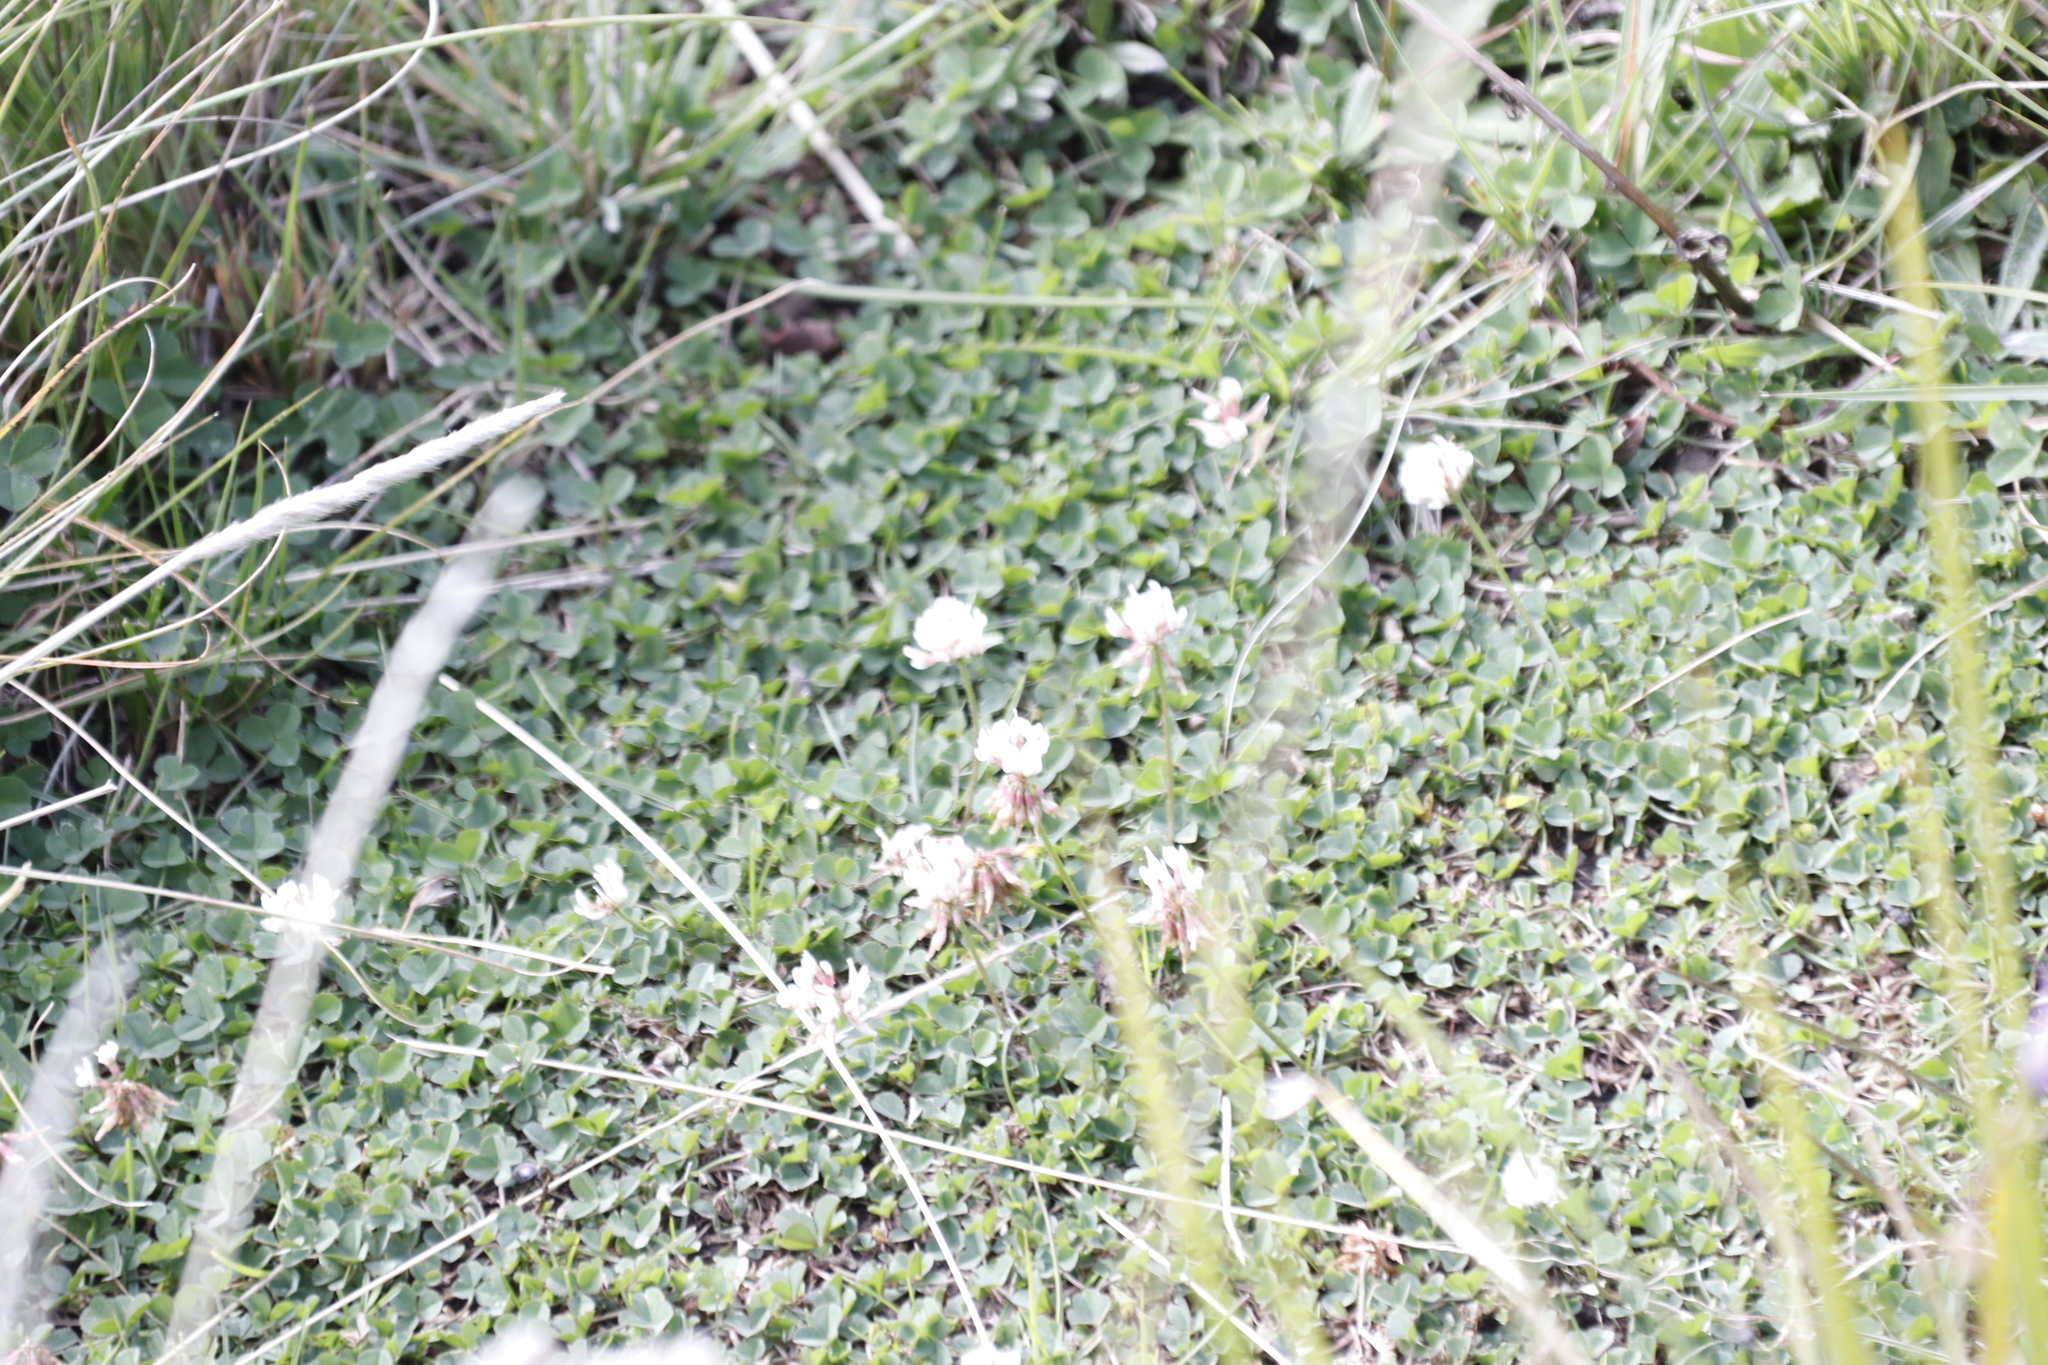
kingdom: Plantae
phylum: Tracheophyta
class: Magnoliopsida
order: Fabales
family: Fabaceae
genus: Trifolium
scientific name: Trifolium repens
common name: White clover
